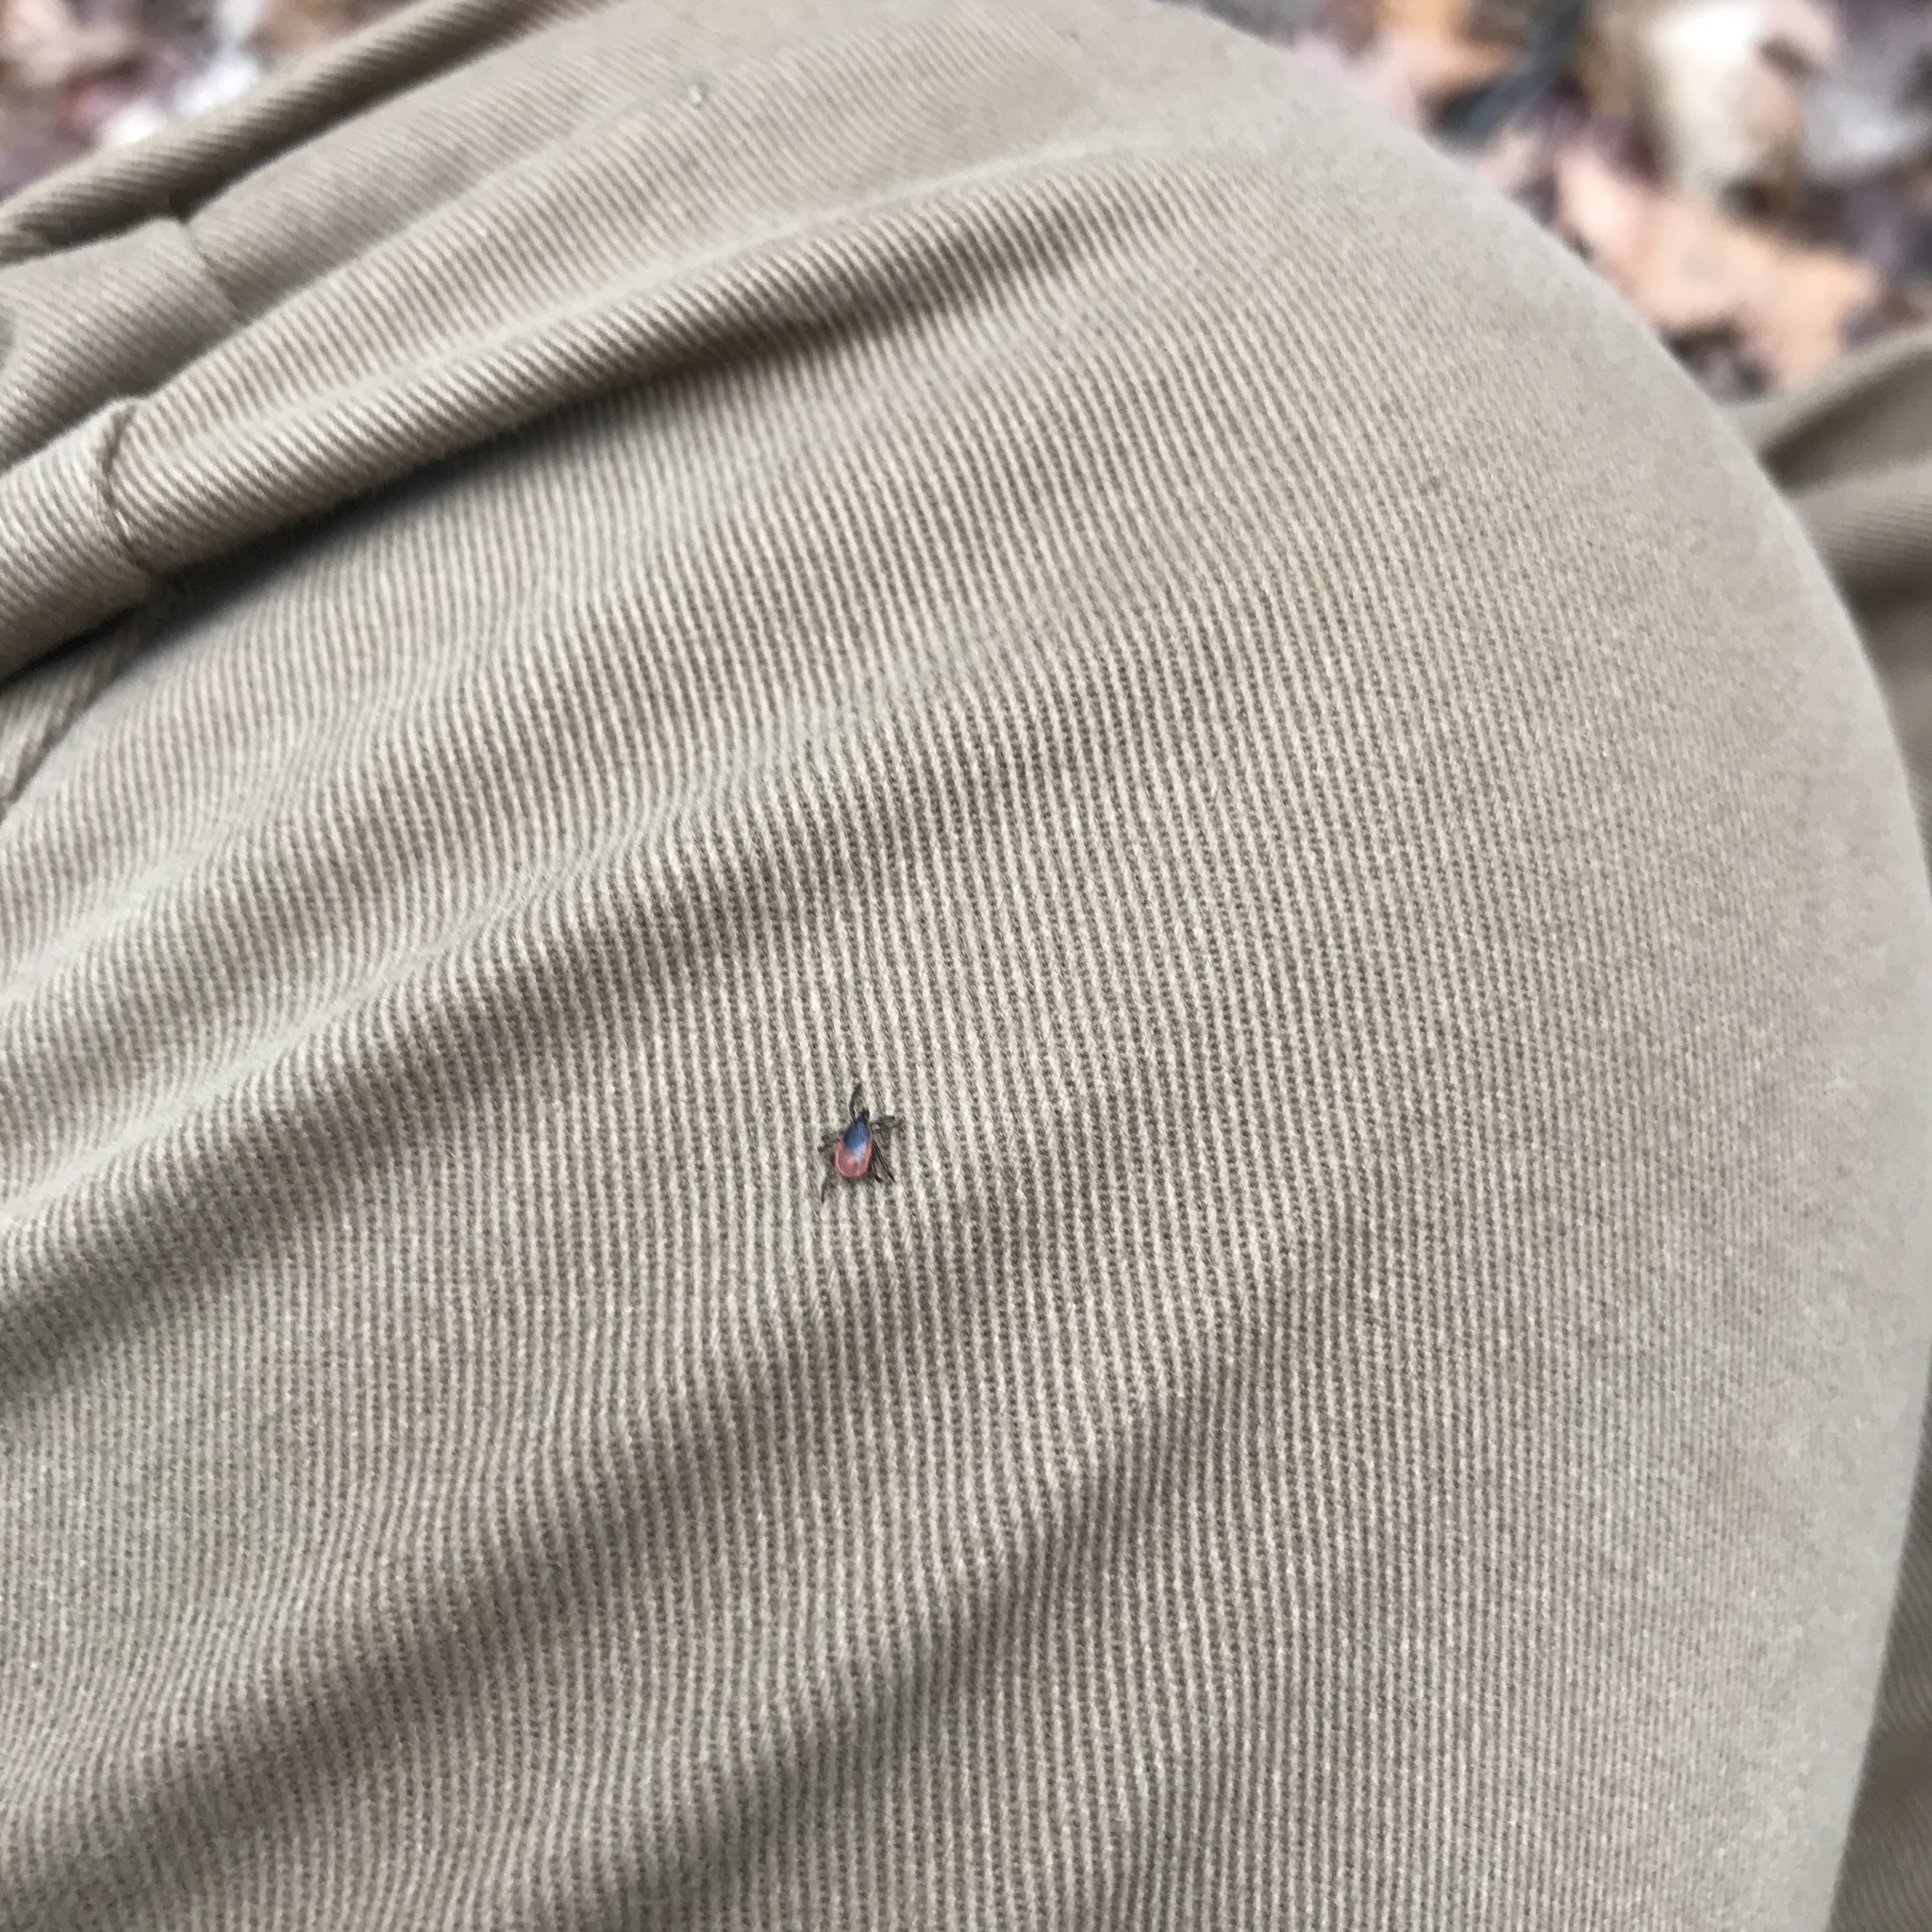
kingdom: Animalia
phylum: Arthropoda
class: Arachnida
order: Ixodida
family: Ixodidae
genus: Ixodes
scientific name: Ixodes scapularis
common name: Black legged tick
